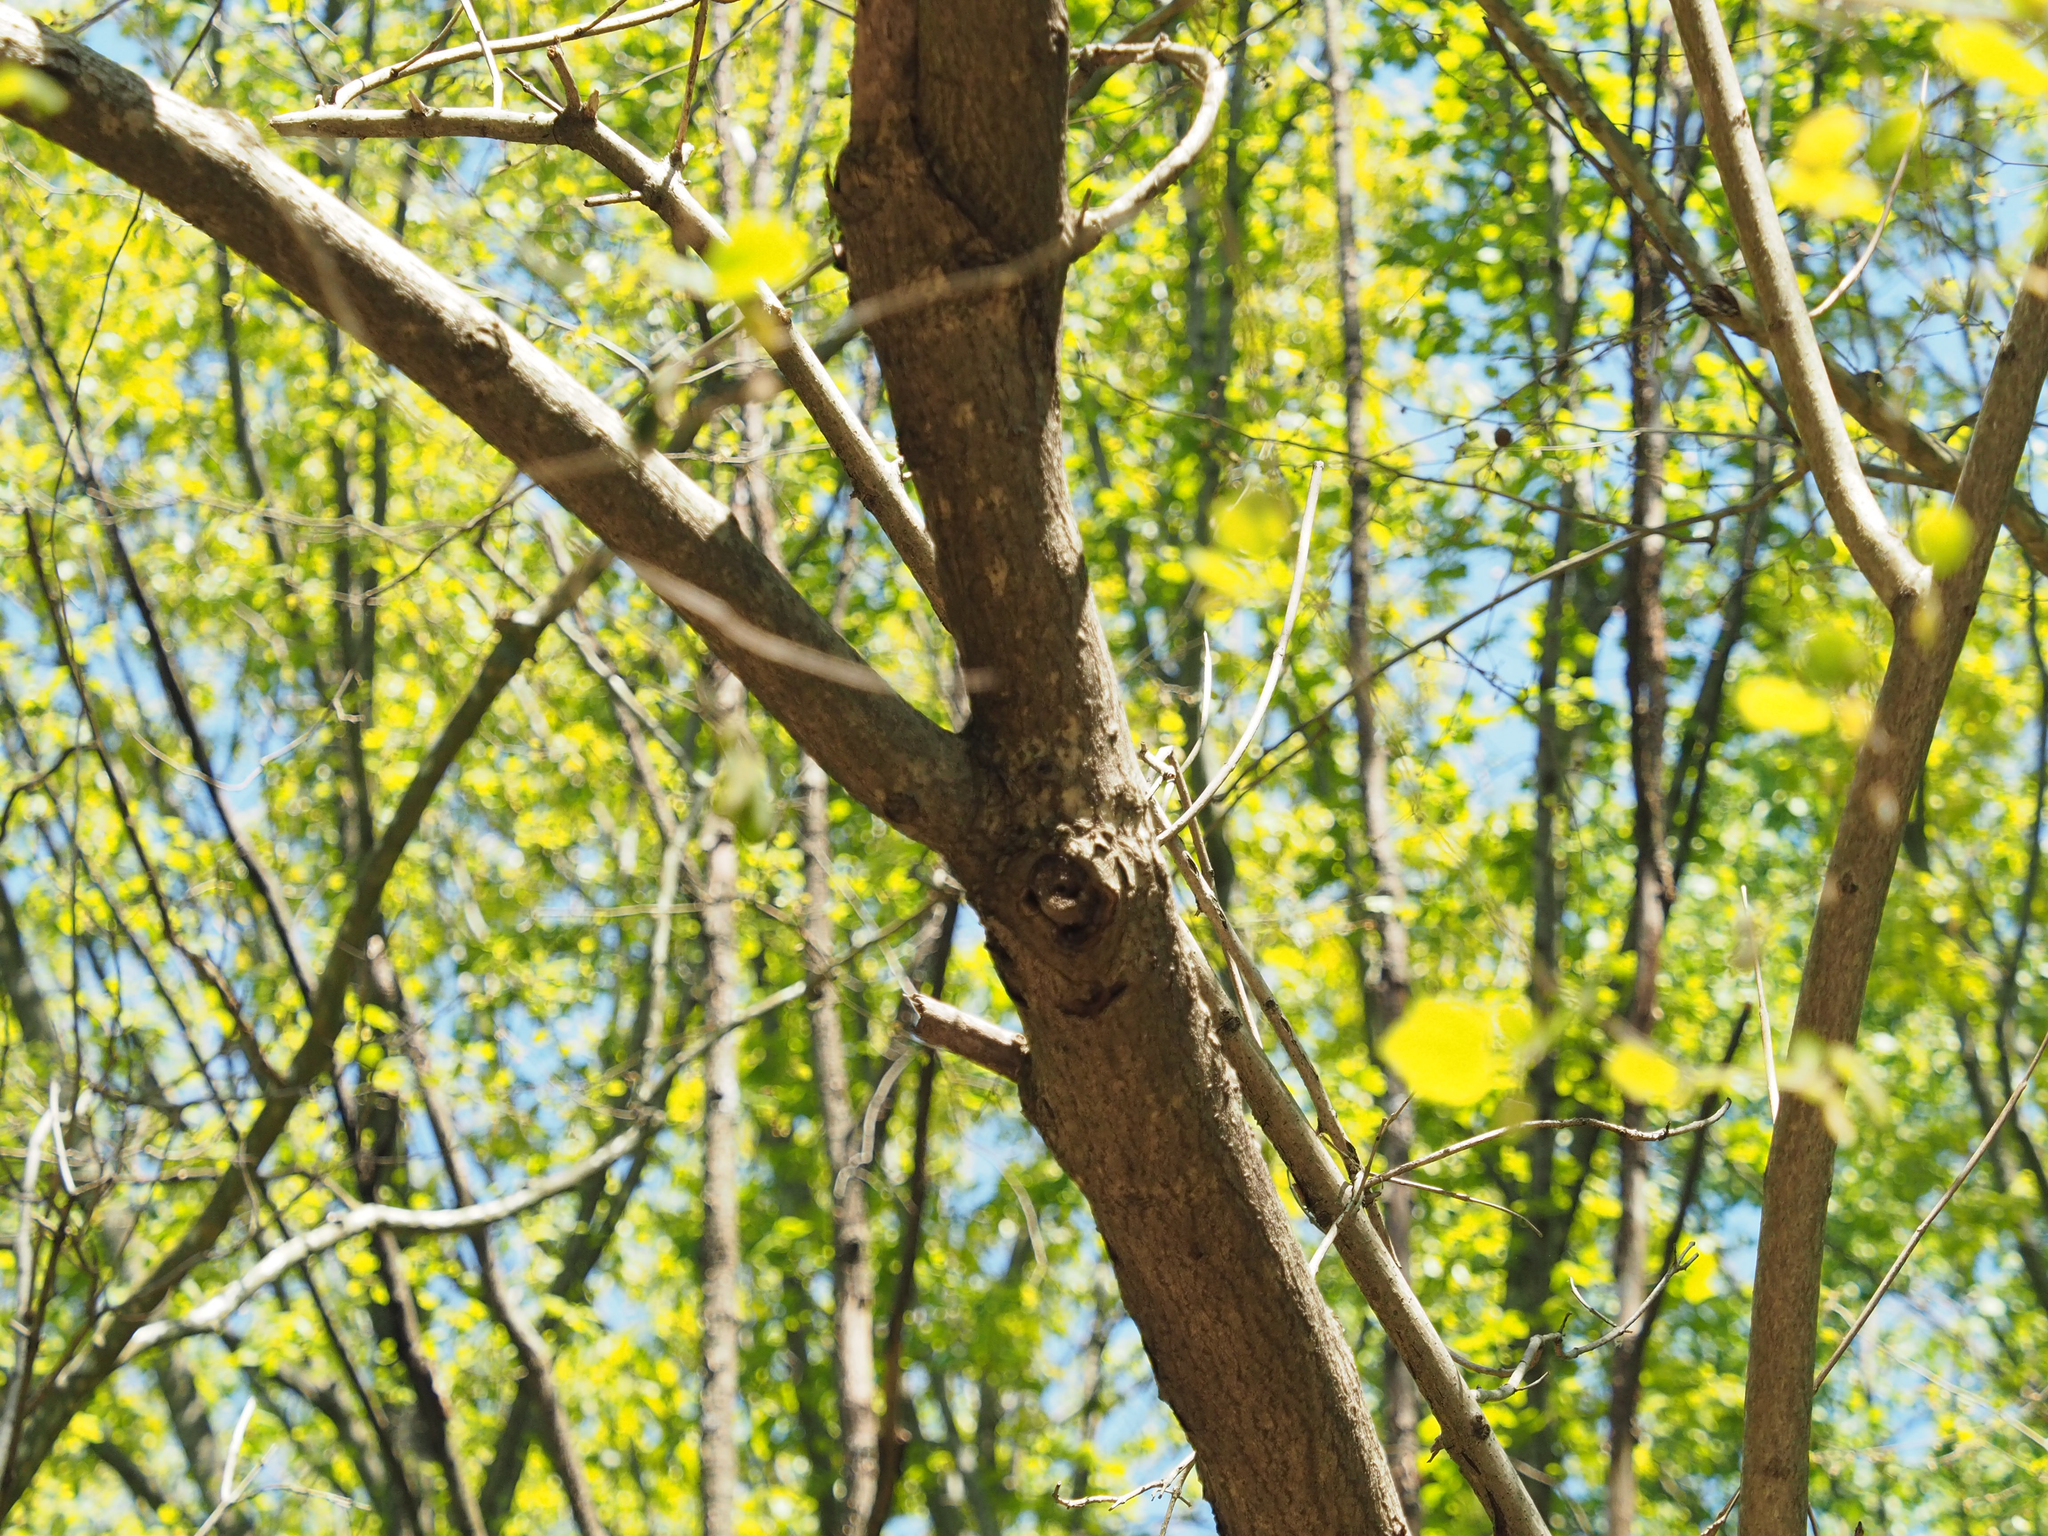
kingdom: Plantae
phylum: Tracheophyta
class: Magnoliopsida
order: Lamiales
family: Paulowniaceae
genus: Paulownia
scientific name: Paulownia tomentosa
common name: Foxglove-tree
